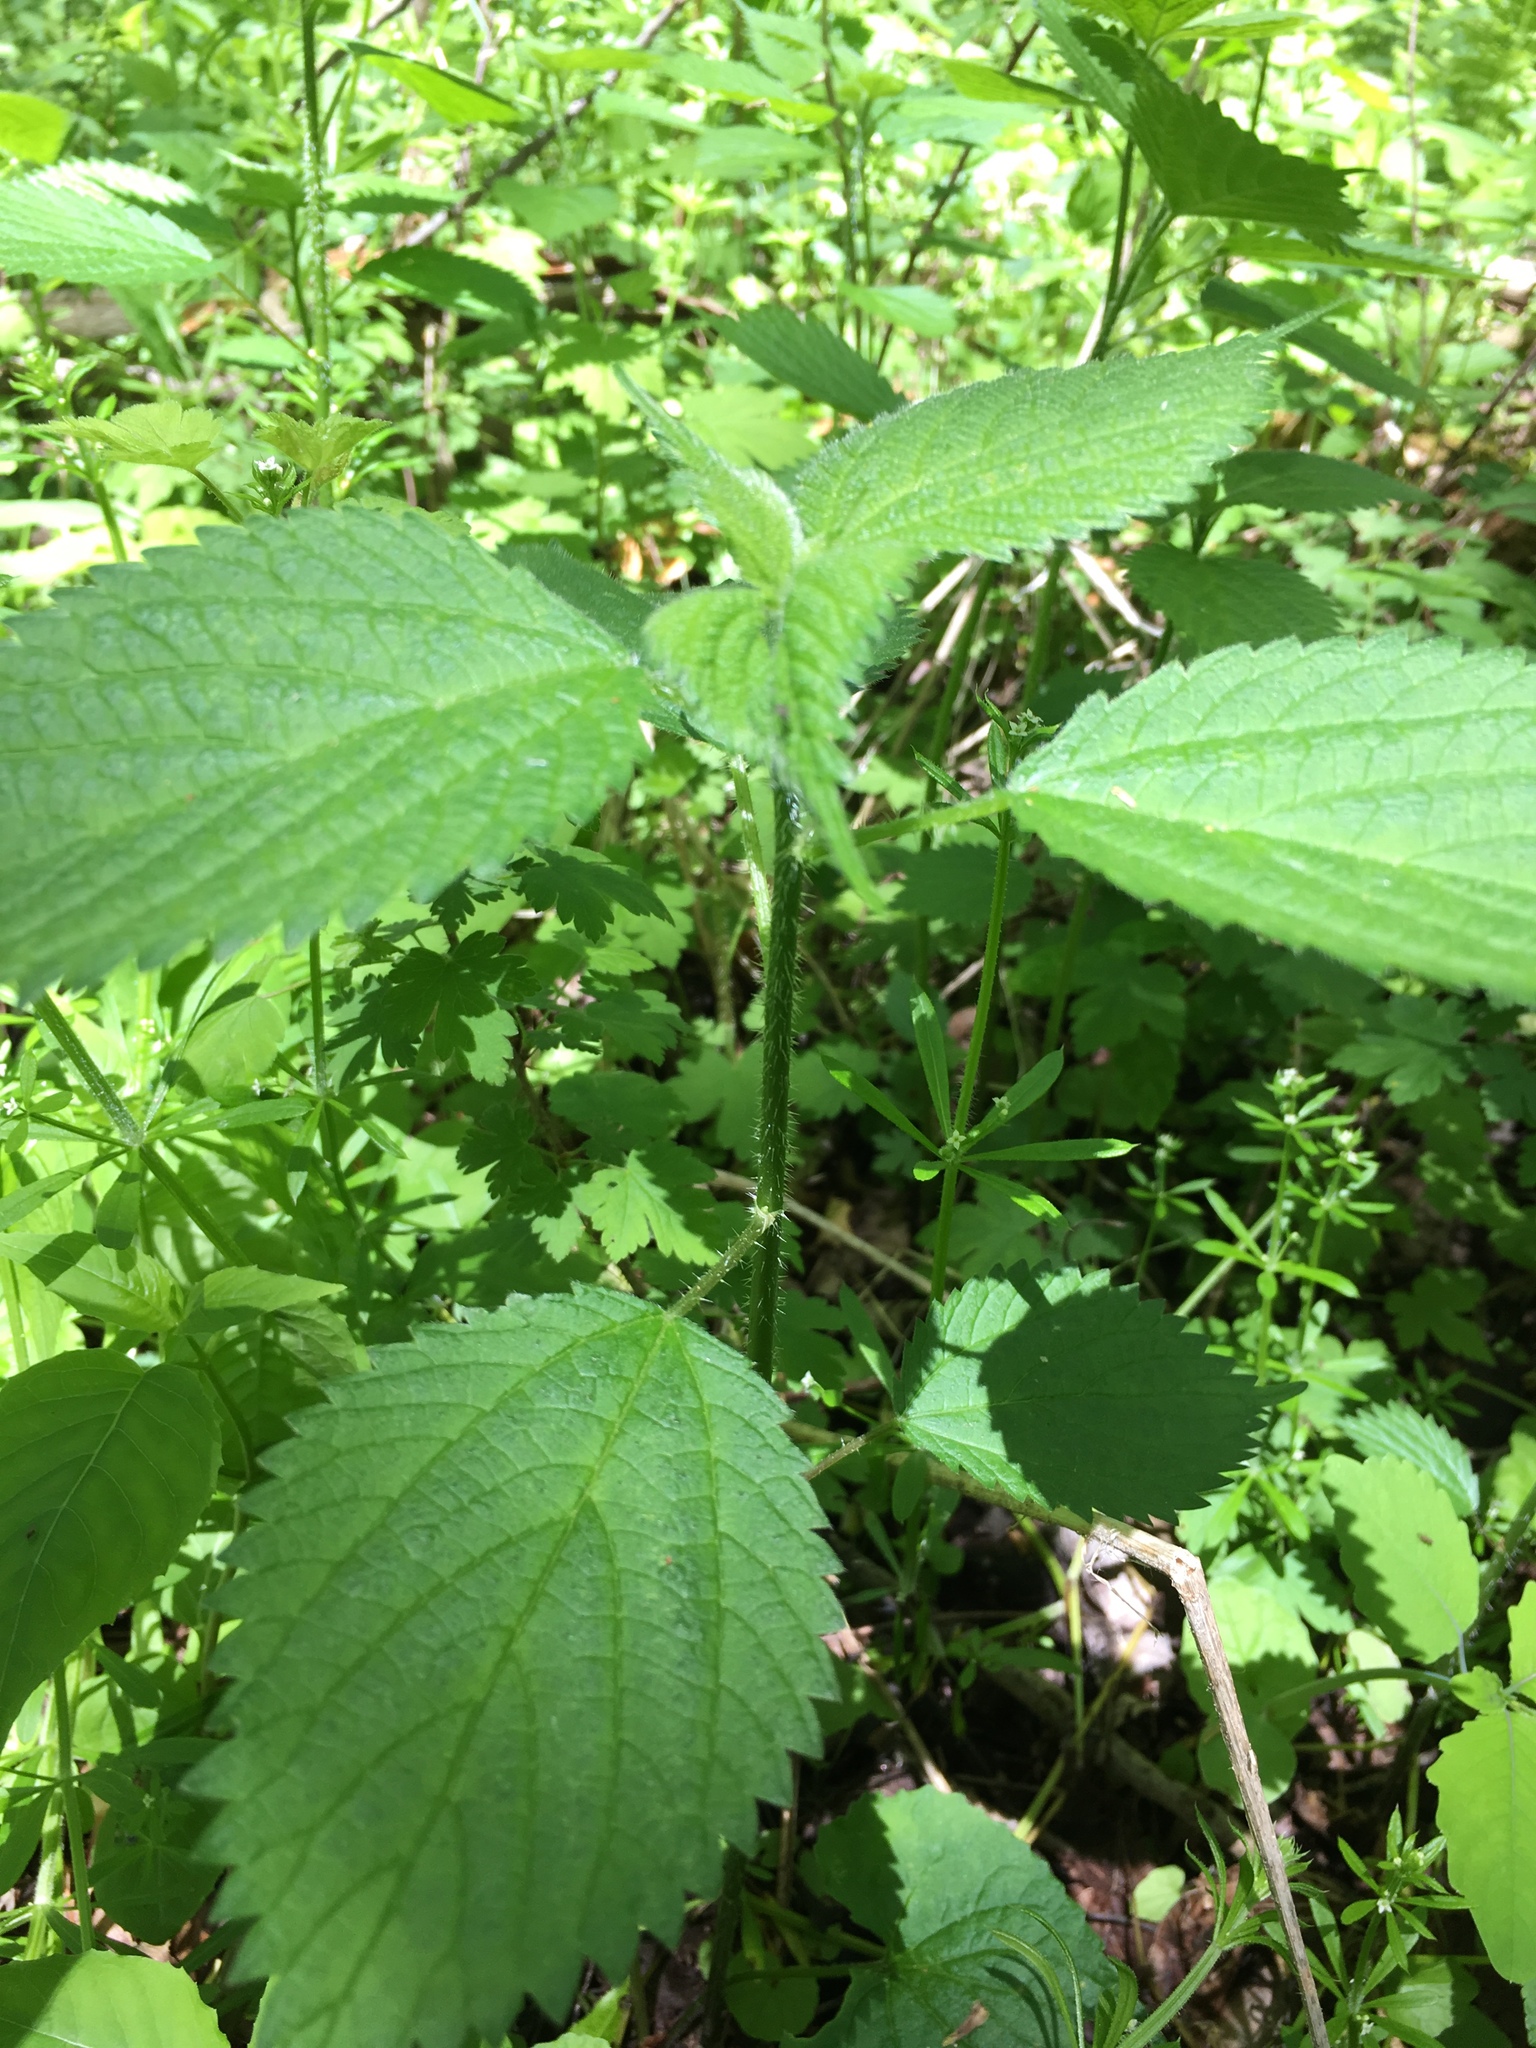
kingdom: Plantae
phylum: Tracheophyta
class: Magnoliopsida
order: Rosales
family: Urticaceae
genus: Laportea
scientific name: Laportea canadensis
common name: Canada nettle
